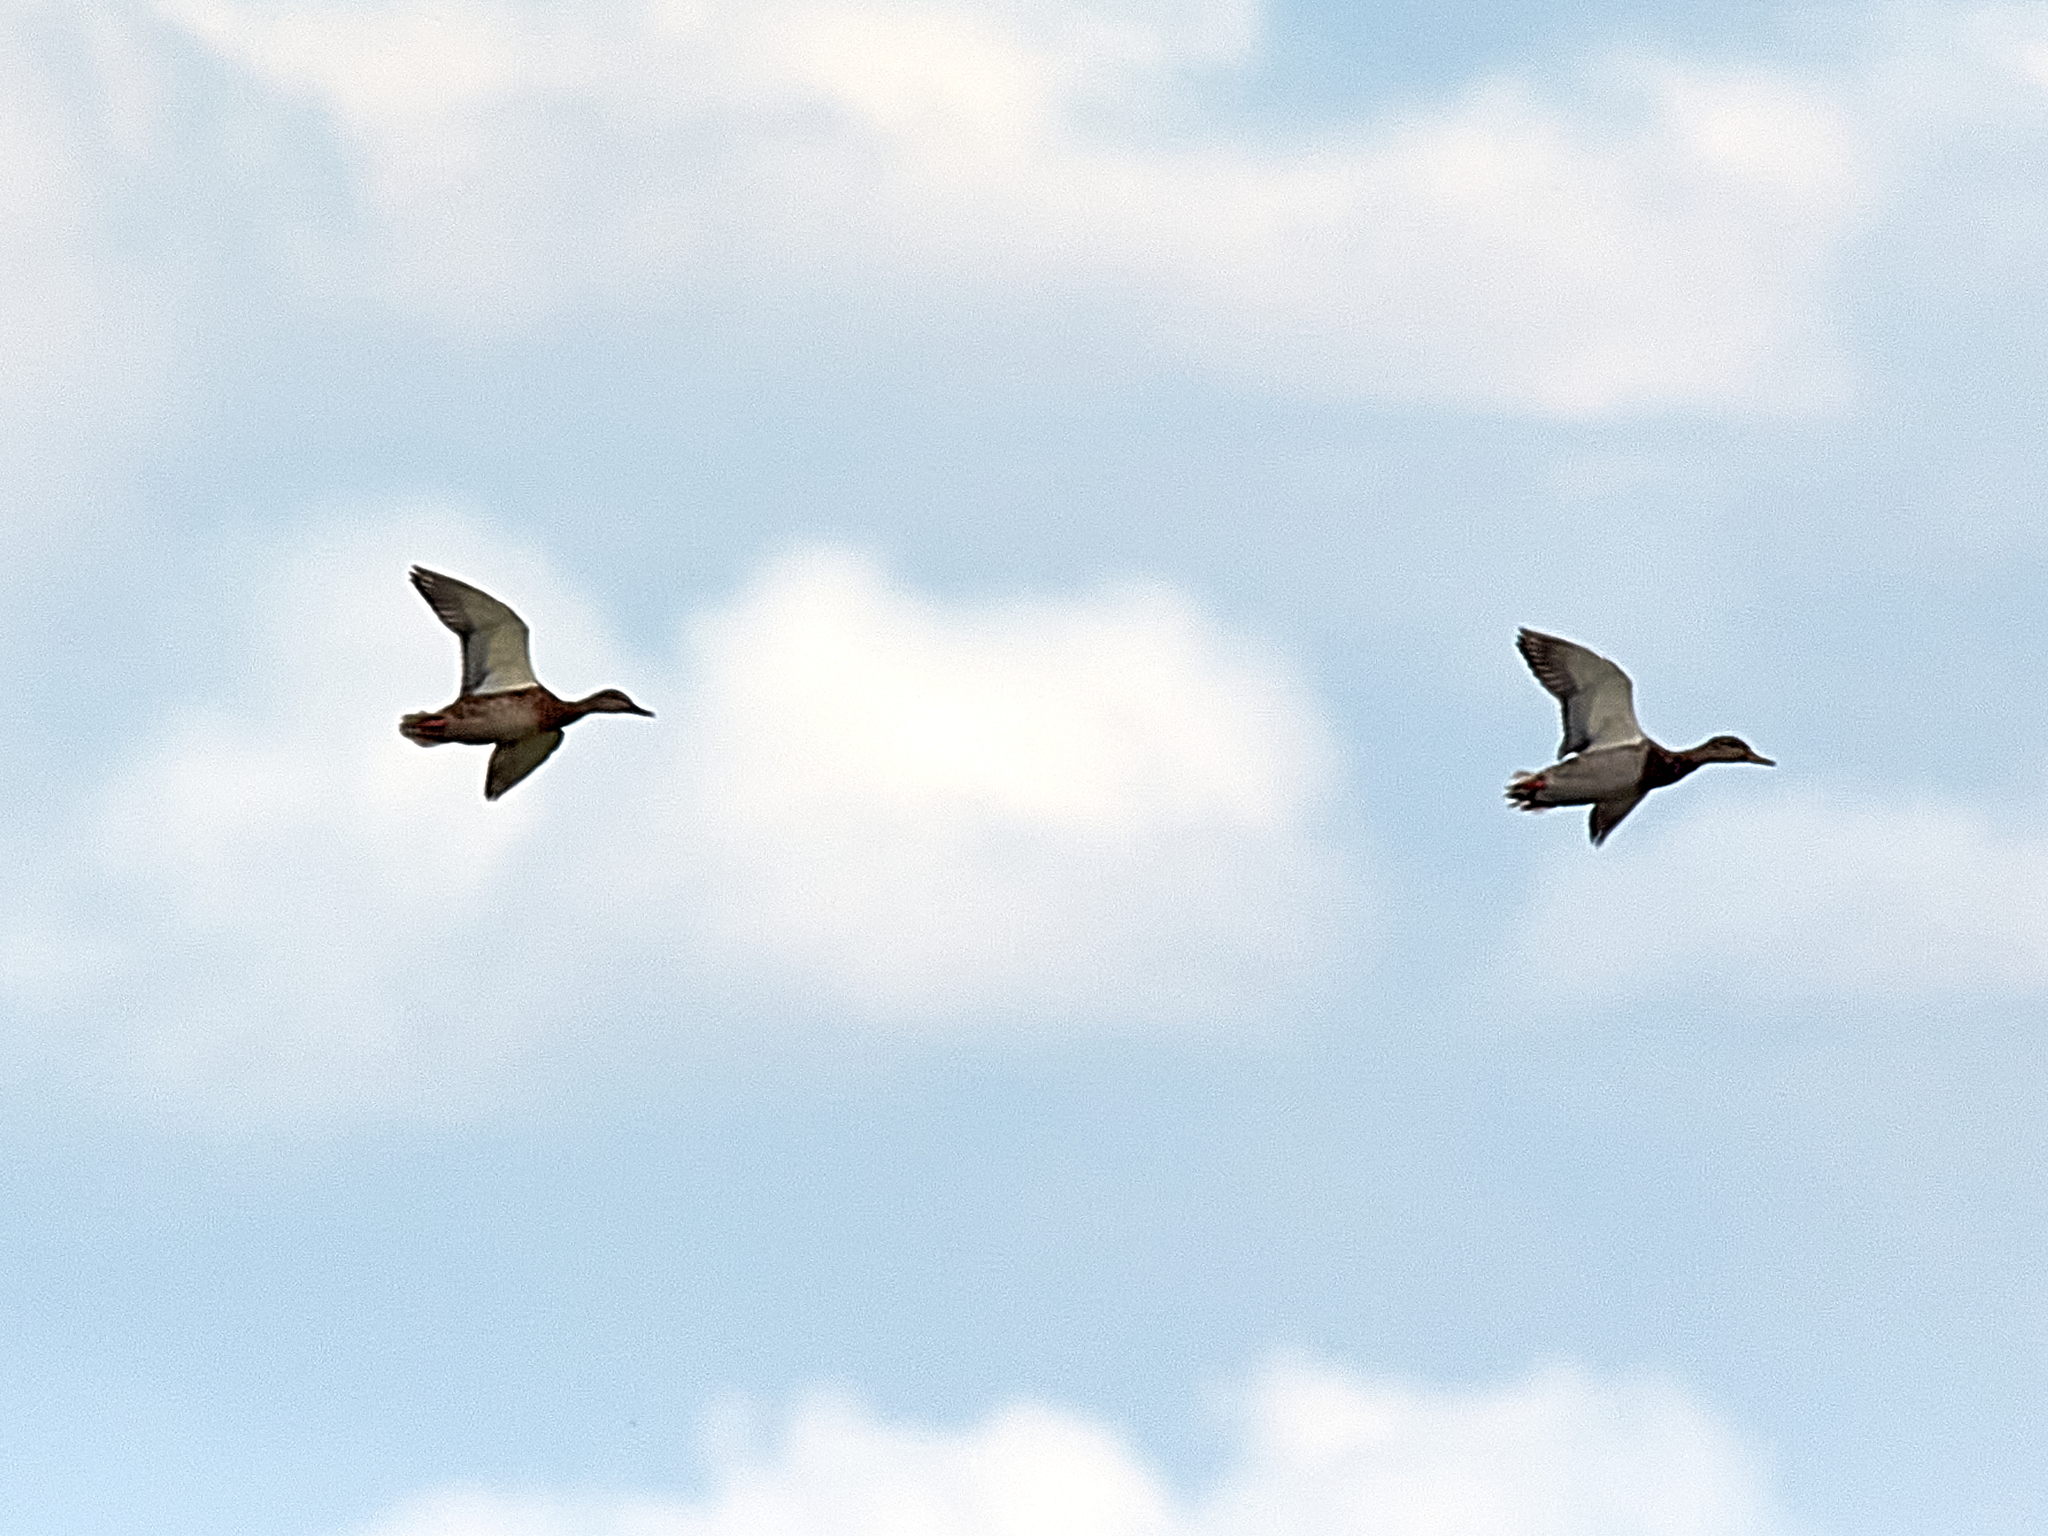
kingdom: Animalia
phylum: Chordata
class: Aves
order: Anseriformes
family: Anatidae
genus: Anas
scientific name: Anas platyrhynchos
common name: Mallard
